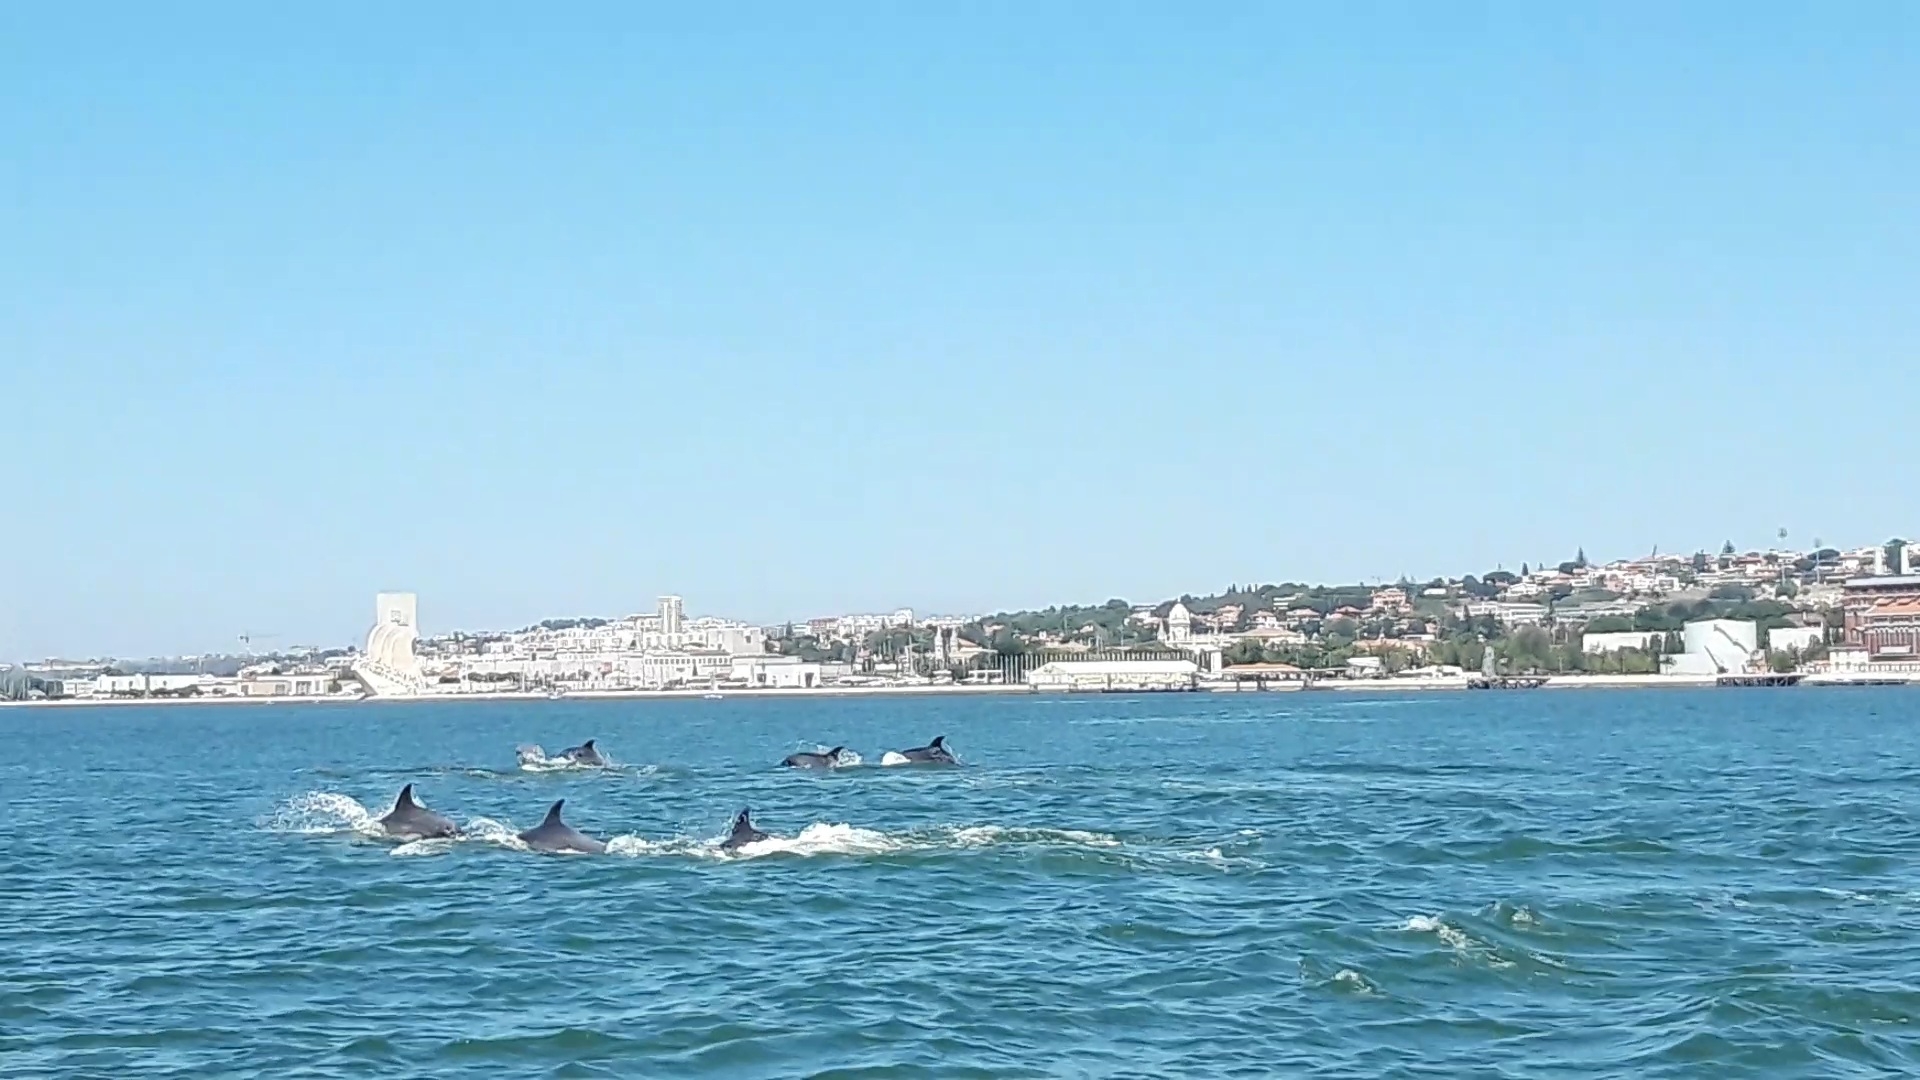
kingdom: Animalia
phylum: Chordata
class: Mammalia
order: Cetacea
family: Delphinidae
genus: Tursiops
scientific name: Tursiops truncatus
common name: Bottlenose dolphin
